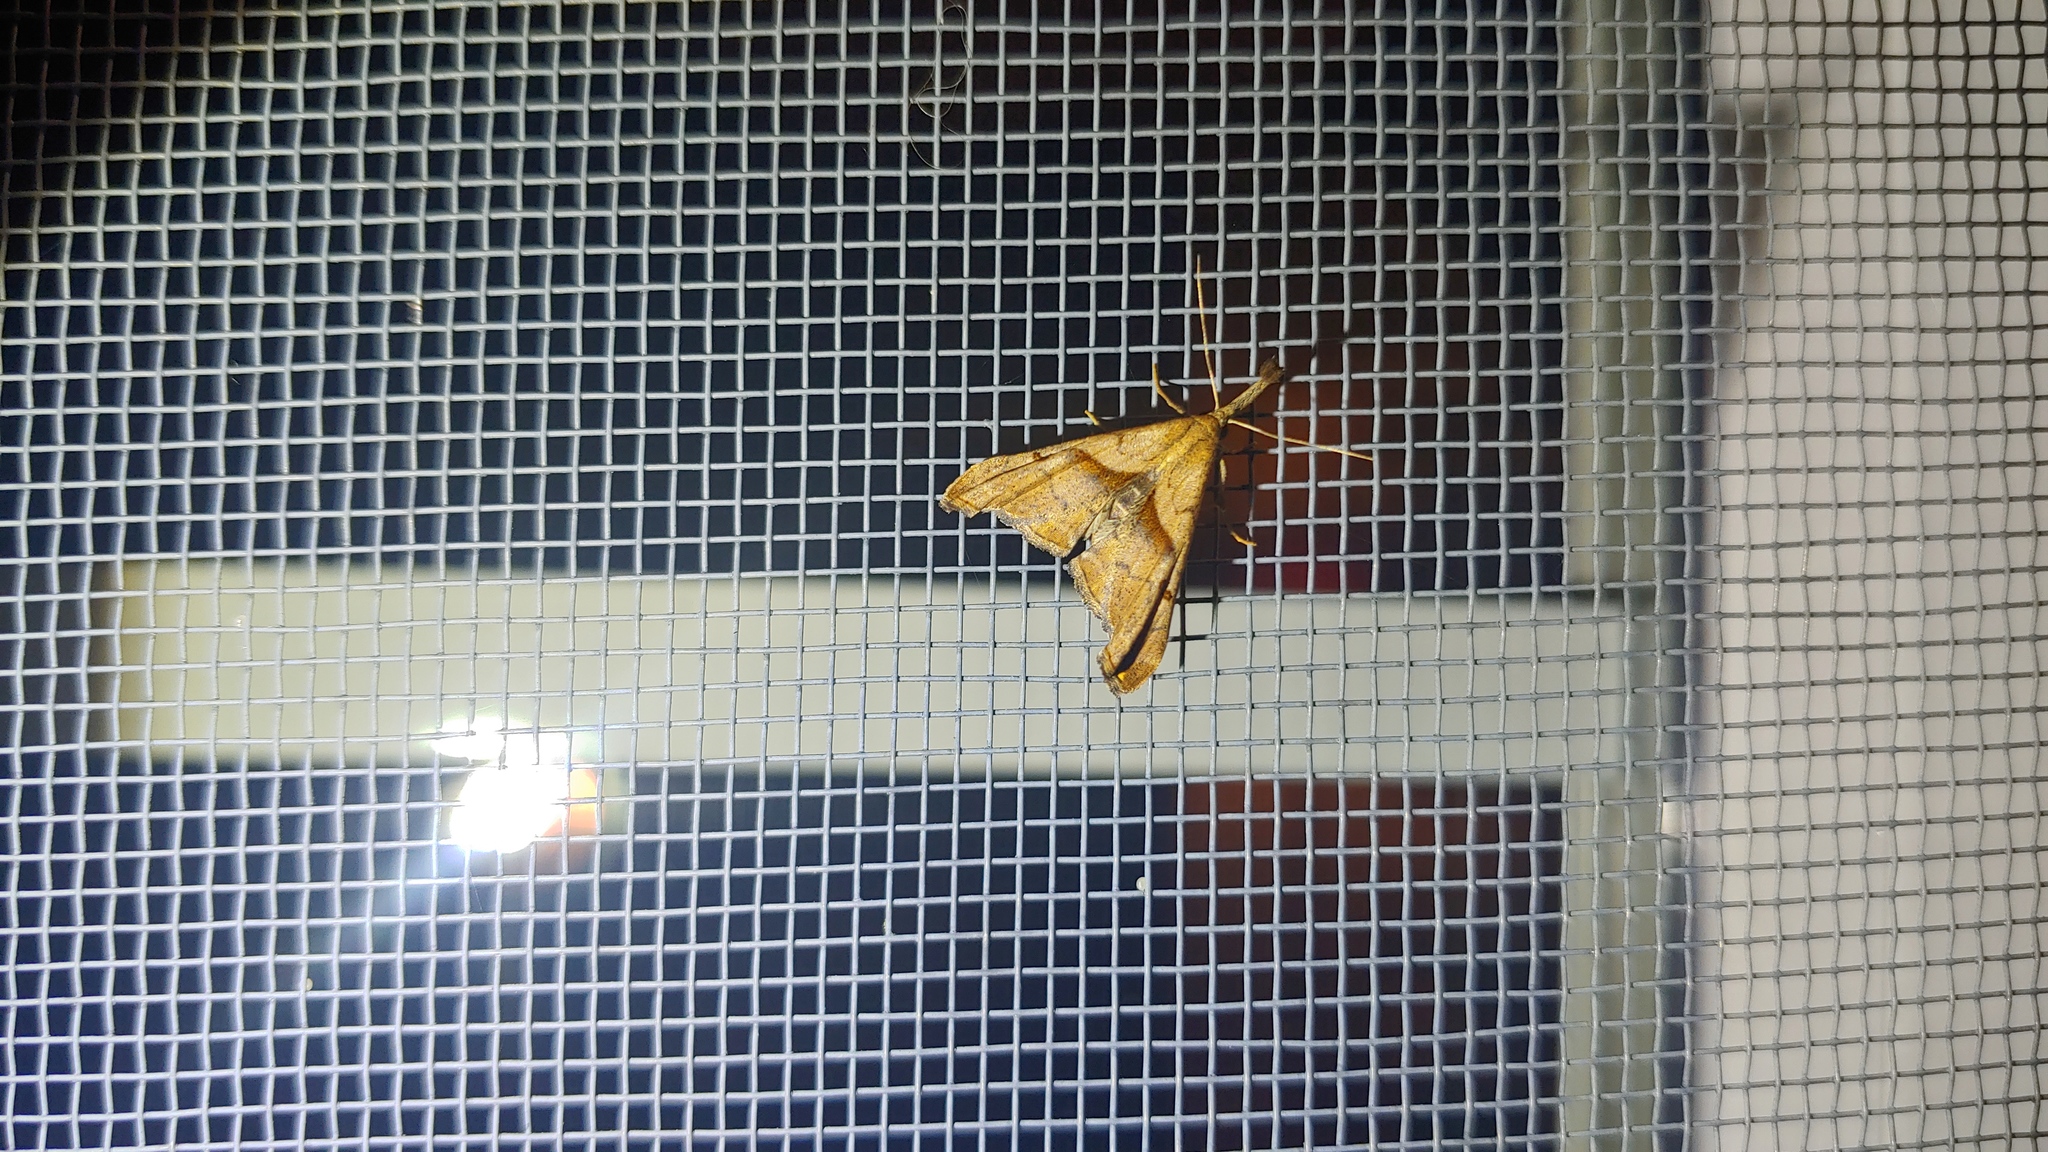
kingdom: Animalia
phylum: Arthropoda
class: Insecta
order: Lepidoptera
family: Erebidae
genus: Palthis
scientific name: Palthis angulalis
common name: Dark-spotted palthis moth
